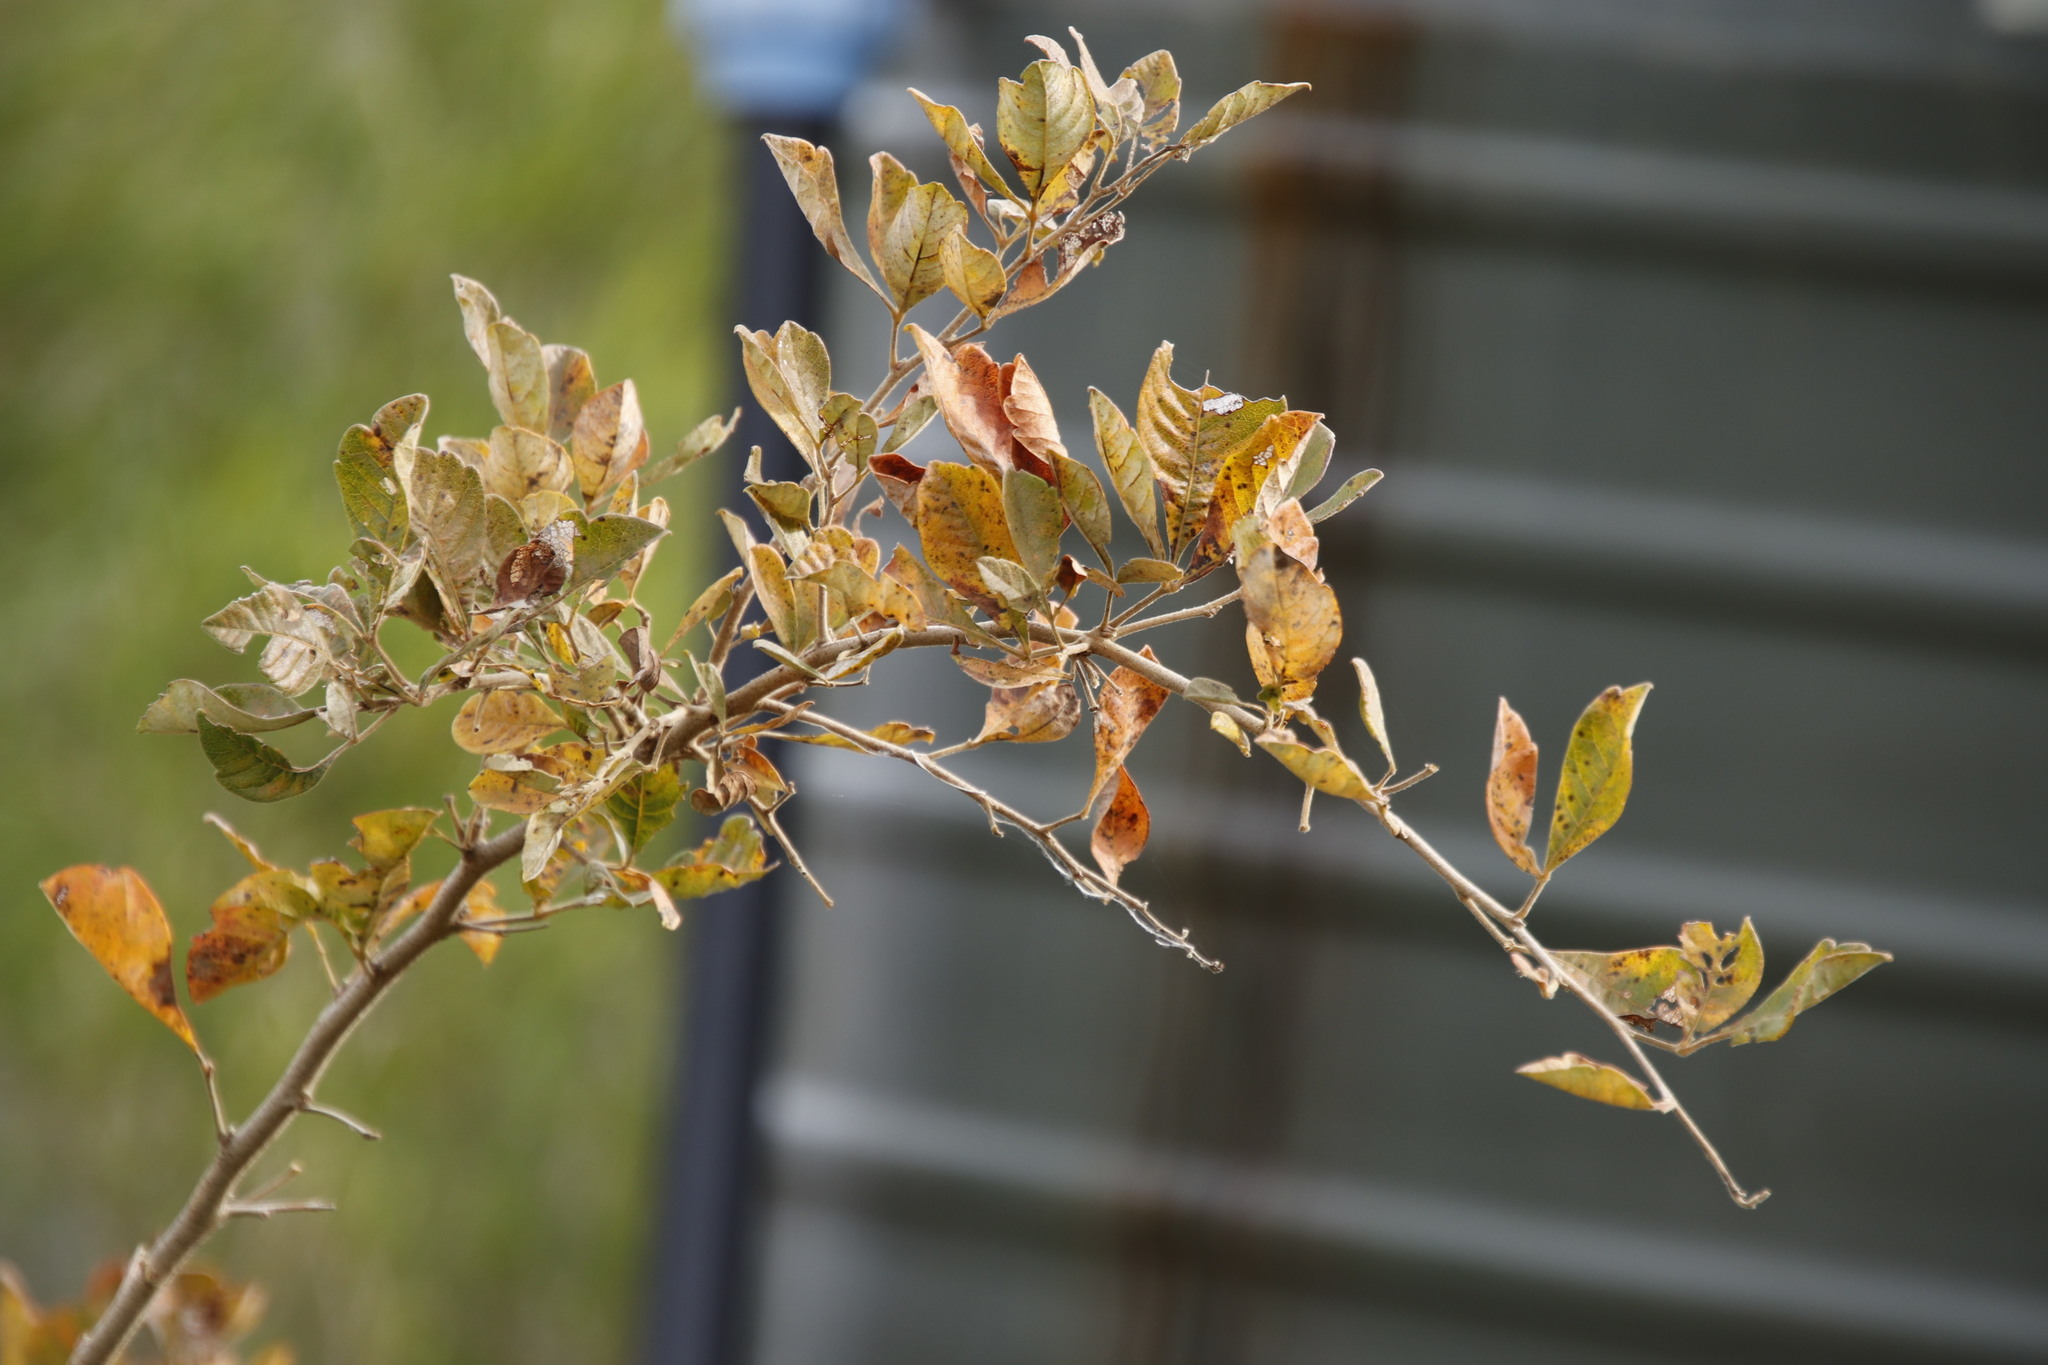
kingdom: Plantae
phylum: Tracheophyta
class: Magnoliopsida
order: Sapindales
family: Anacardiaceae
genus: Searsia
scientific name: Searsia rehmanniana
